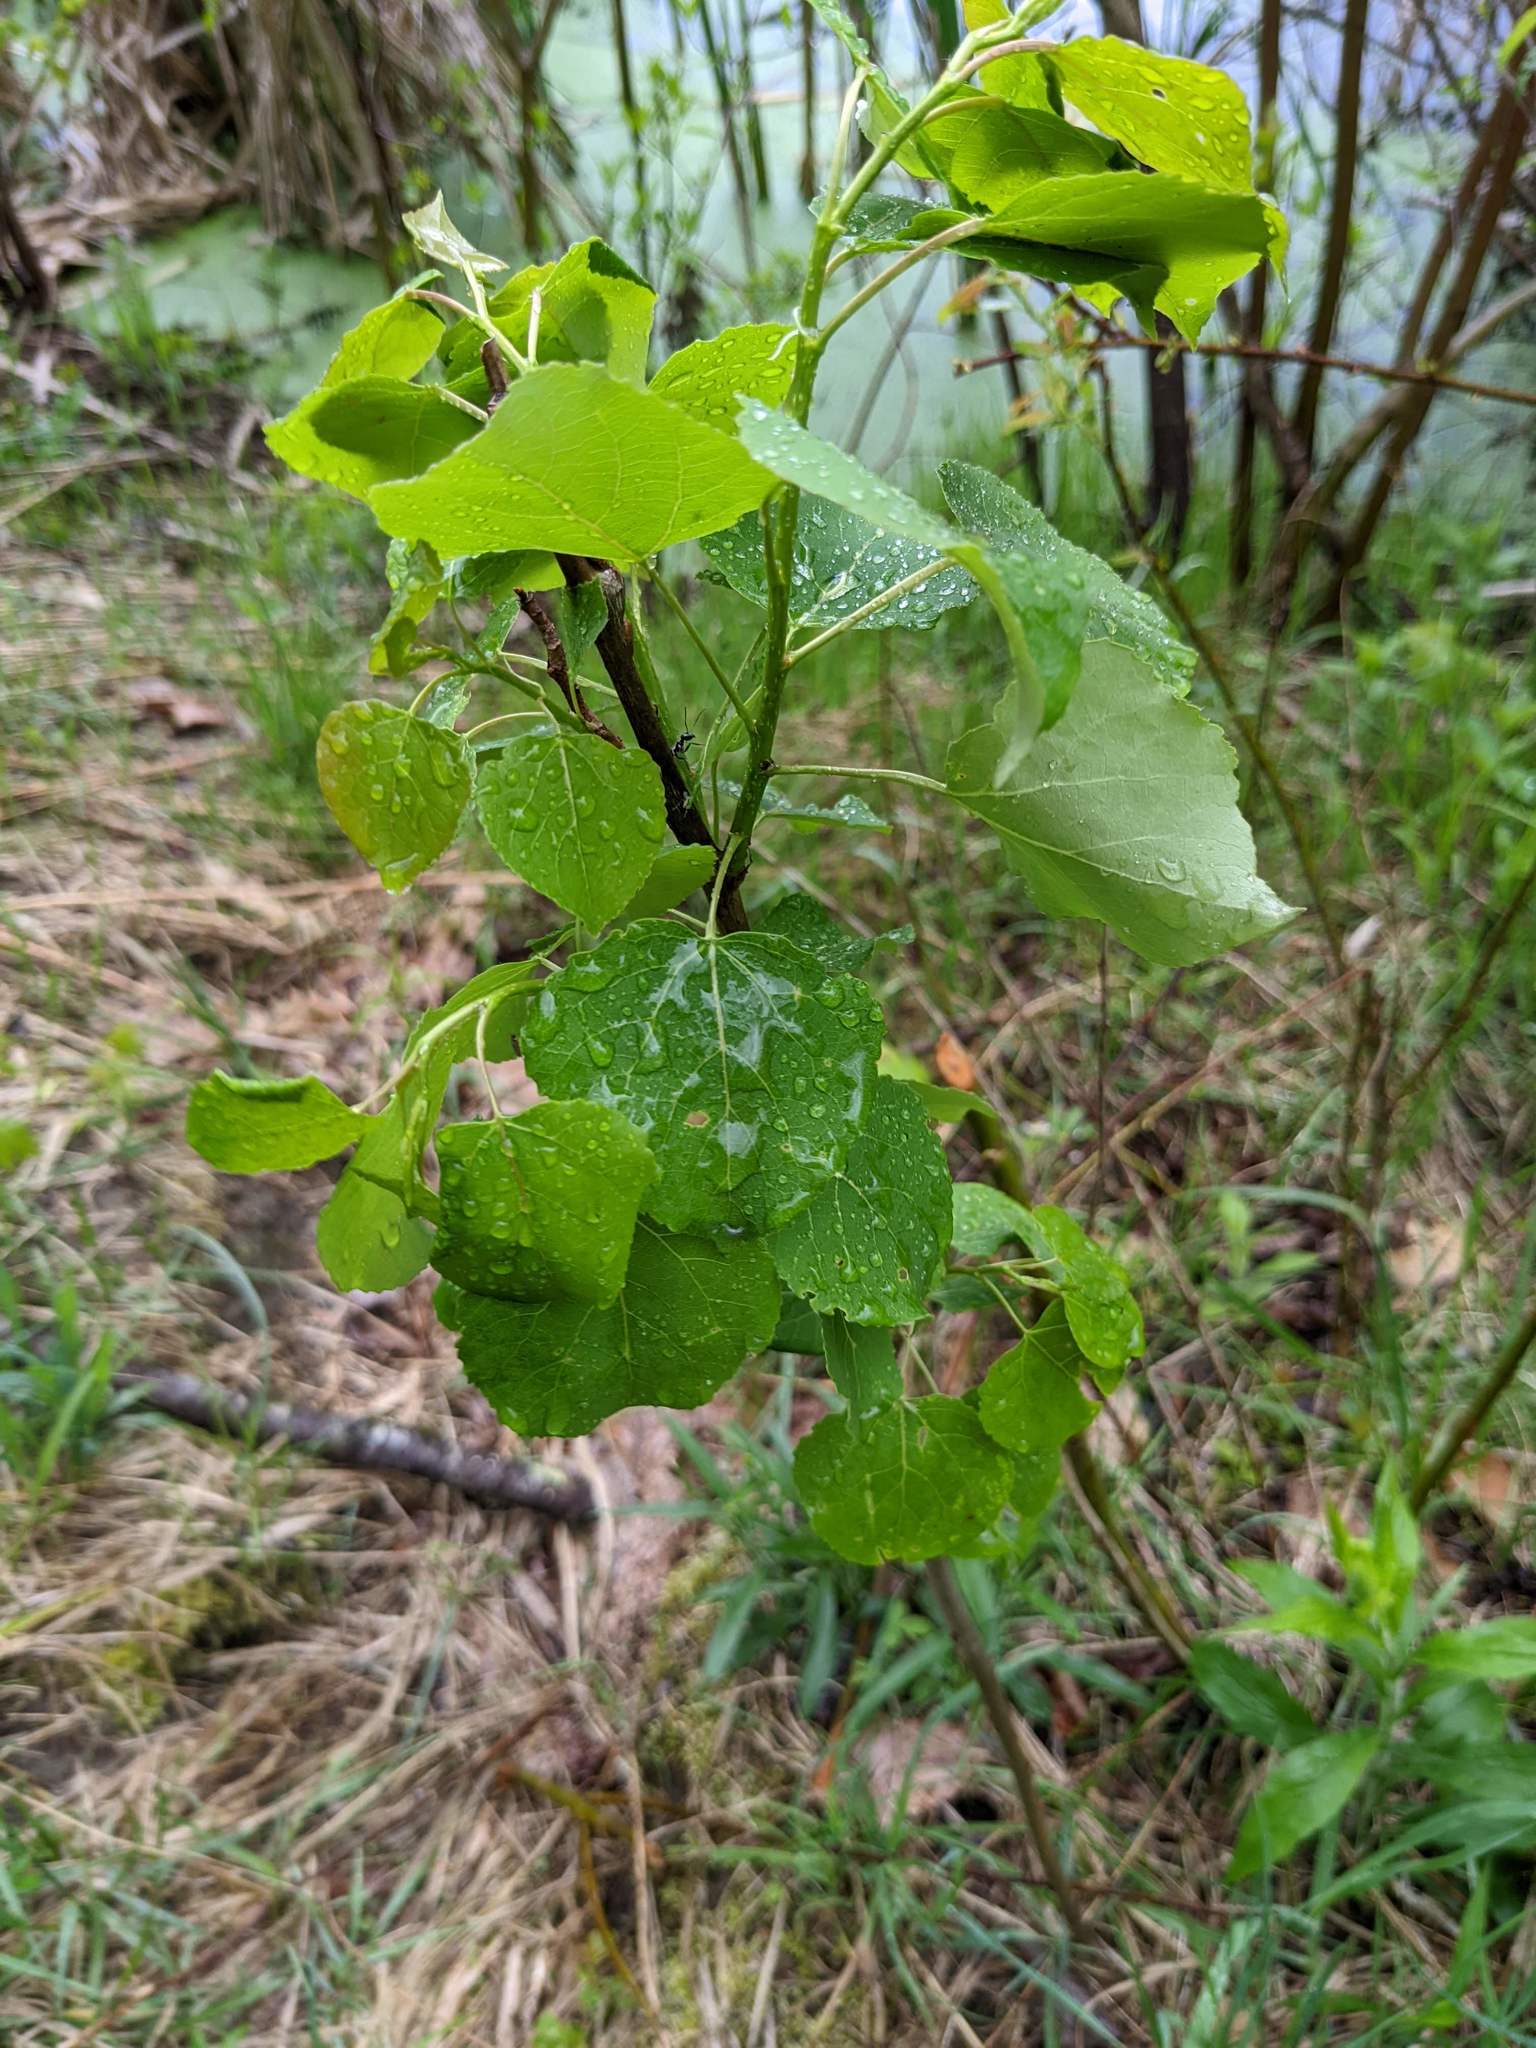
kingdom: Plantae
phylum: Tracheophyta
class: Magnoliopsida
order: Malpighiales
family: Salicaceae
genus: Populus
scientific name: Populus tremuloides
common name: Quaking aspen
